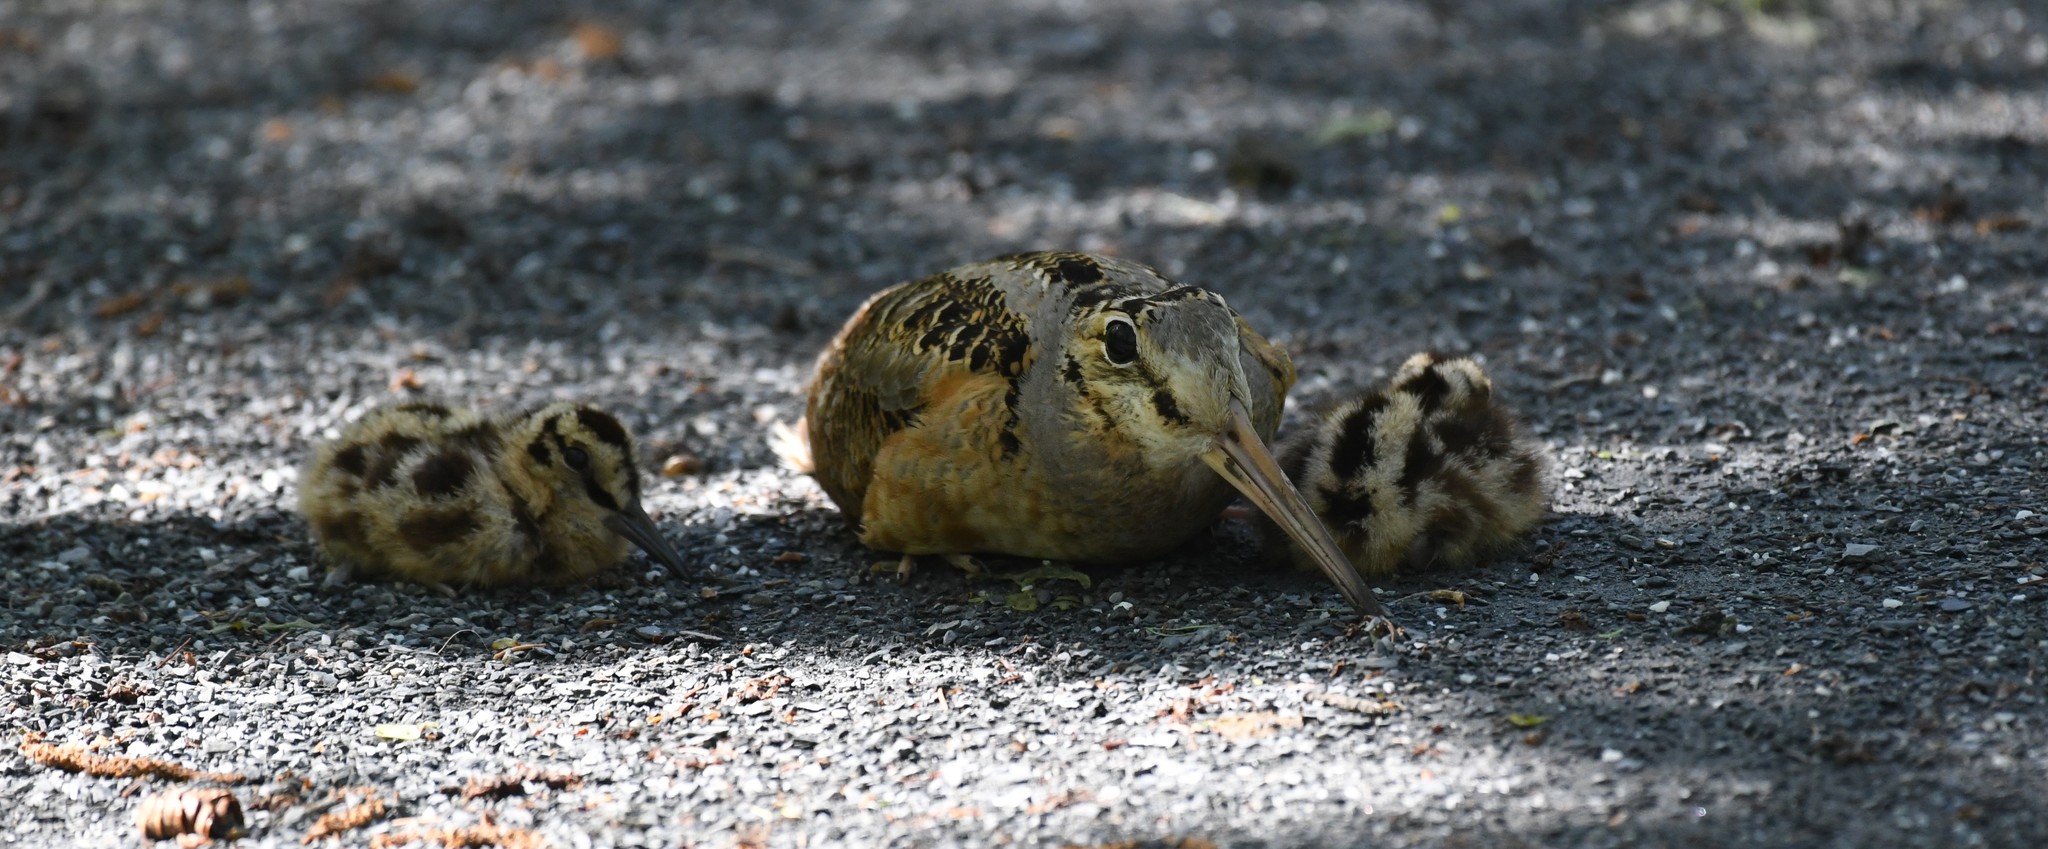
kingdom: Animalia
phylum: Chordata
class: Aves
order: Charadriiformes
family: Scolopacidae
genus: Scolopax
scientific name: Scolopax minor
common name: American woodcock
